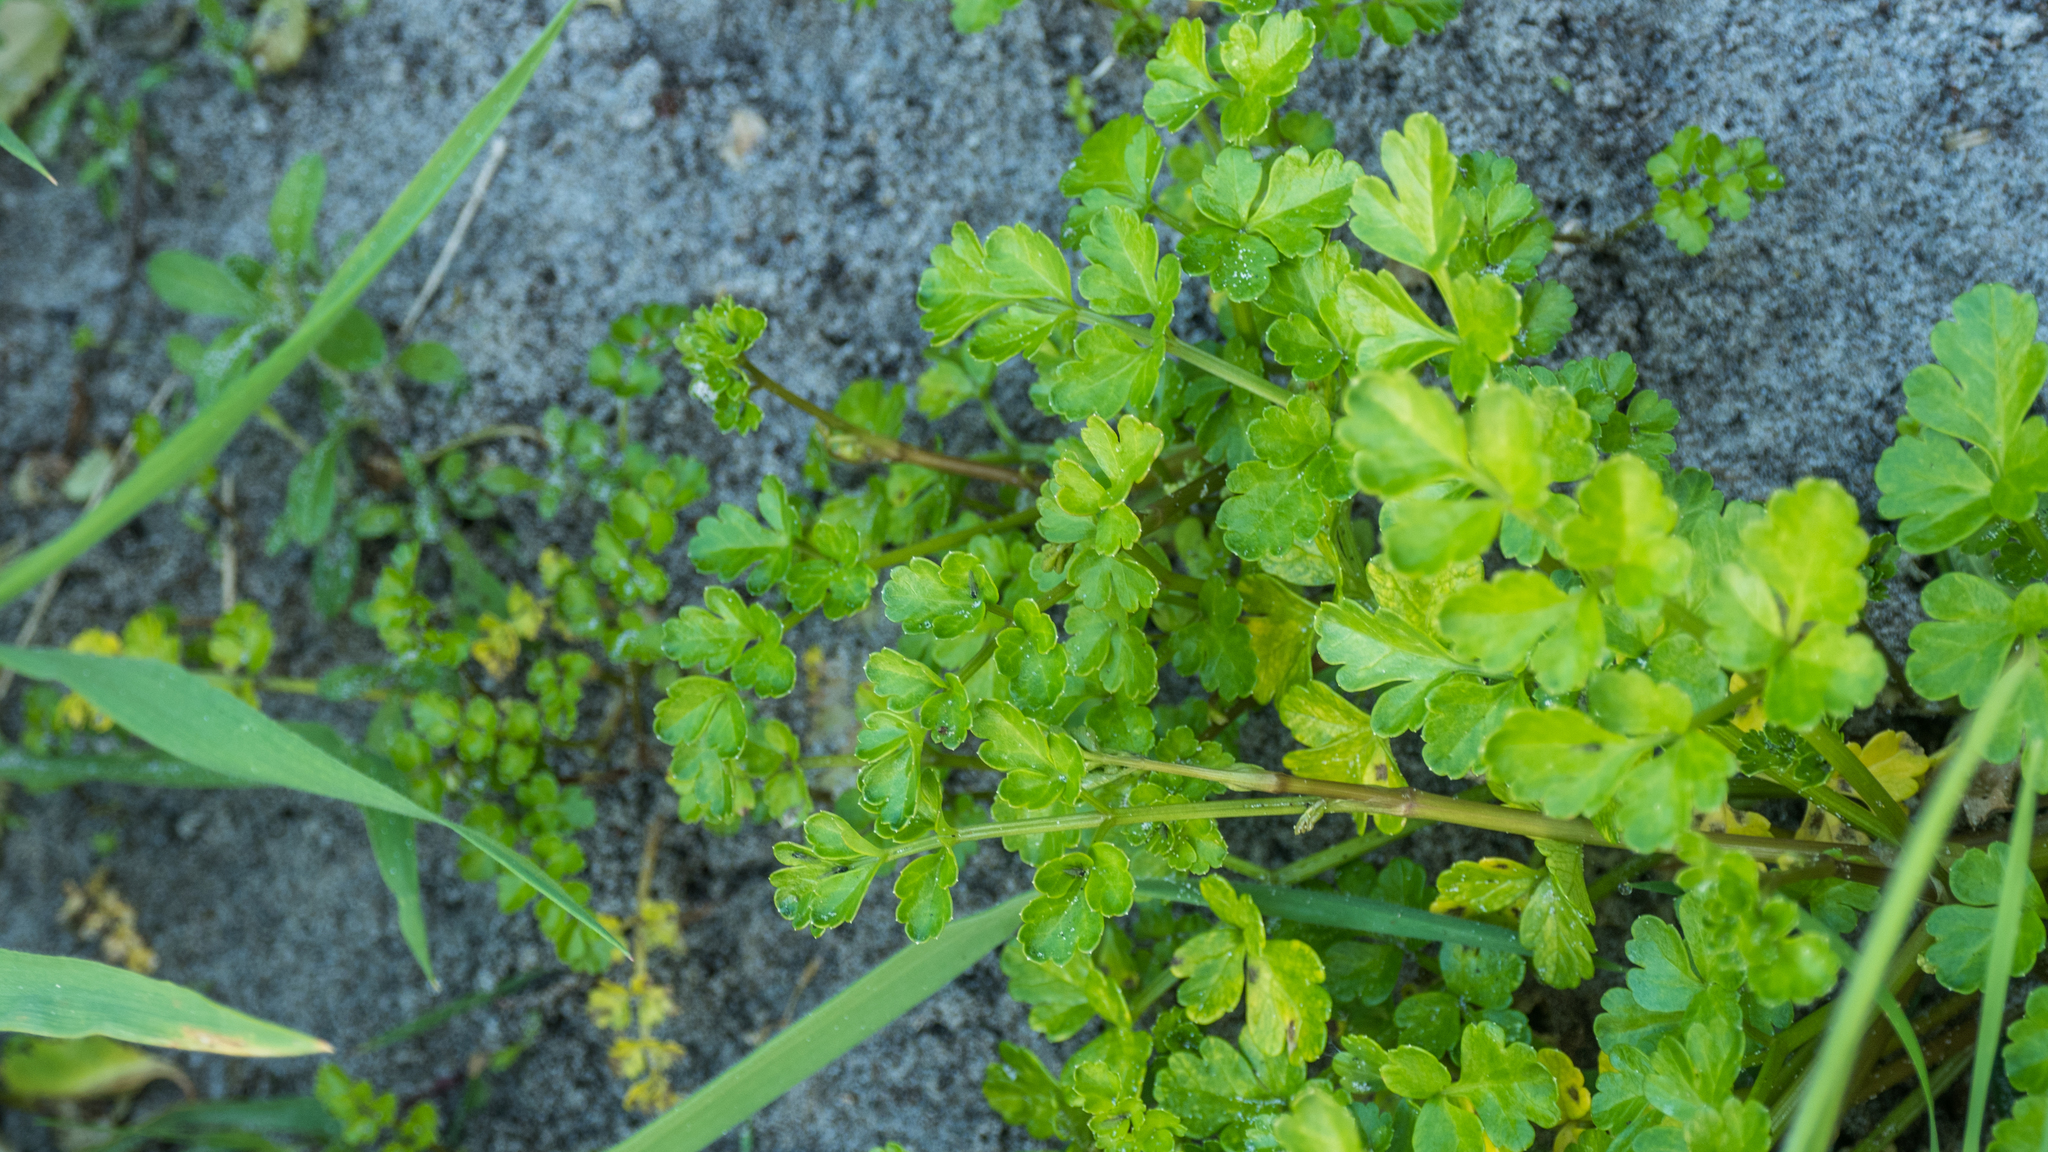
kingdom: Plantae
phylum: Tracheophyta
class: Magnoliopsida
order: Apiales
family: Apiaceae
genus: Apium
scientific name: Apium prostratum
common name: Prostrate marshwort
